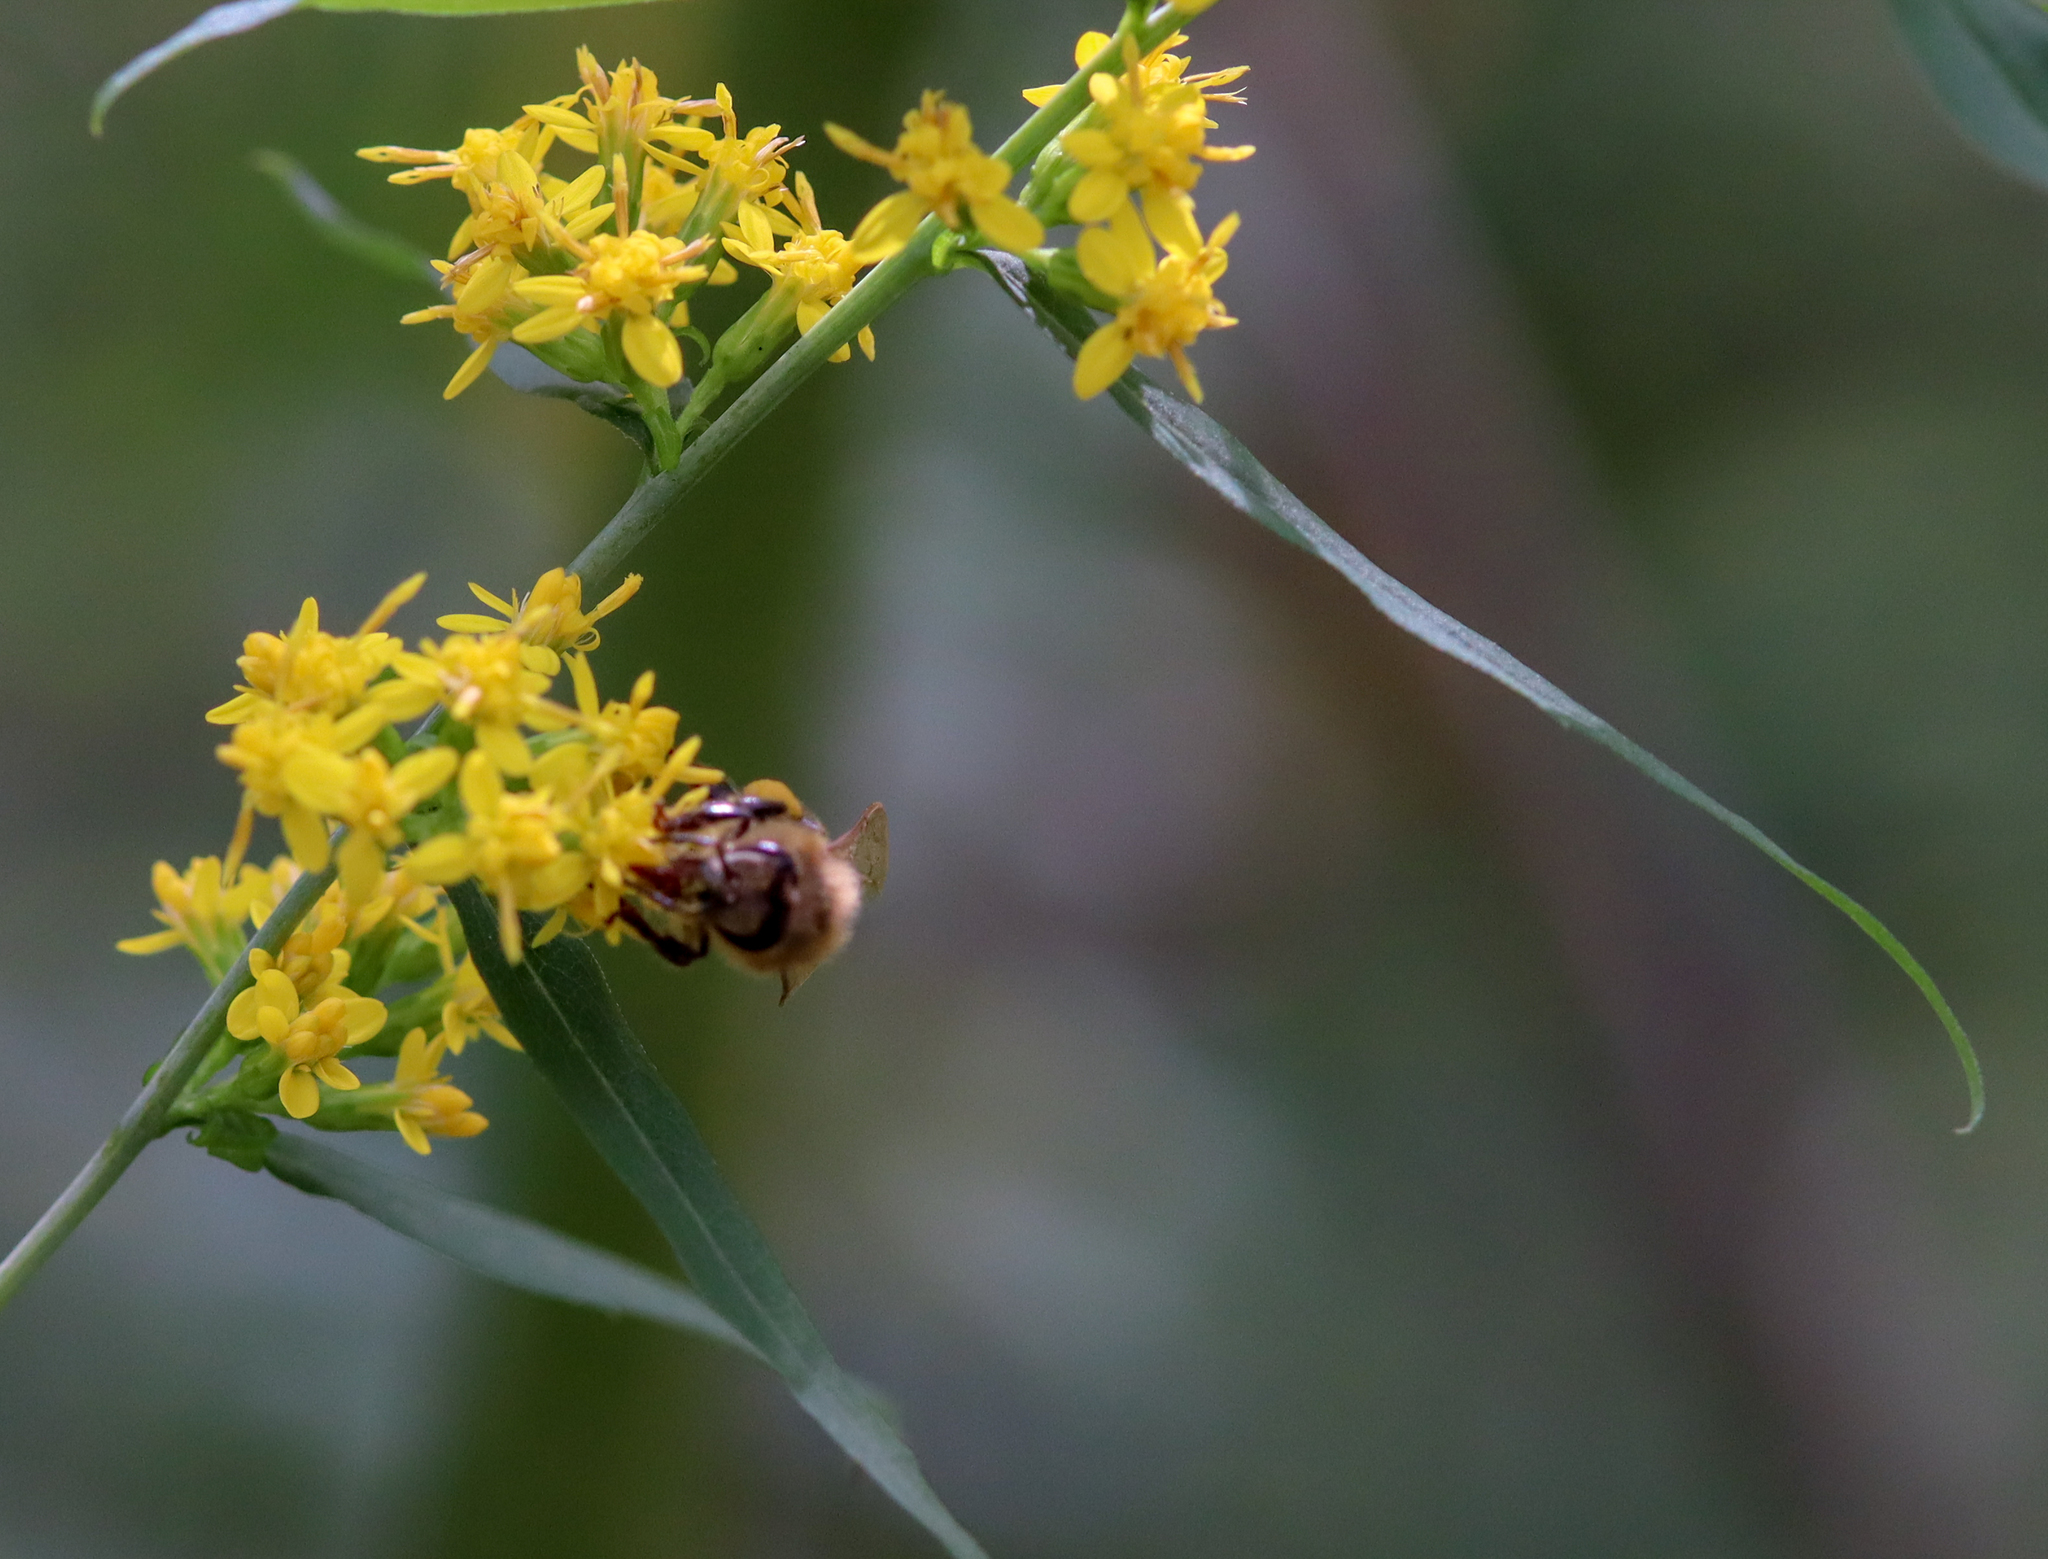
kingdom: Animalia
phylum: Arthropoda
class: Insecta
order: Hymenoptera
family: Apidae
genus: Apis
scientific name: Apis mellifera
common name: Honey bee
